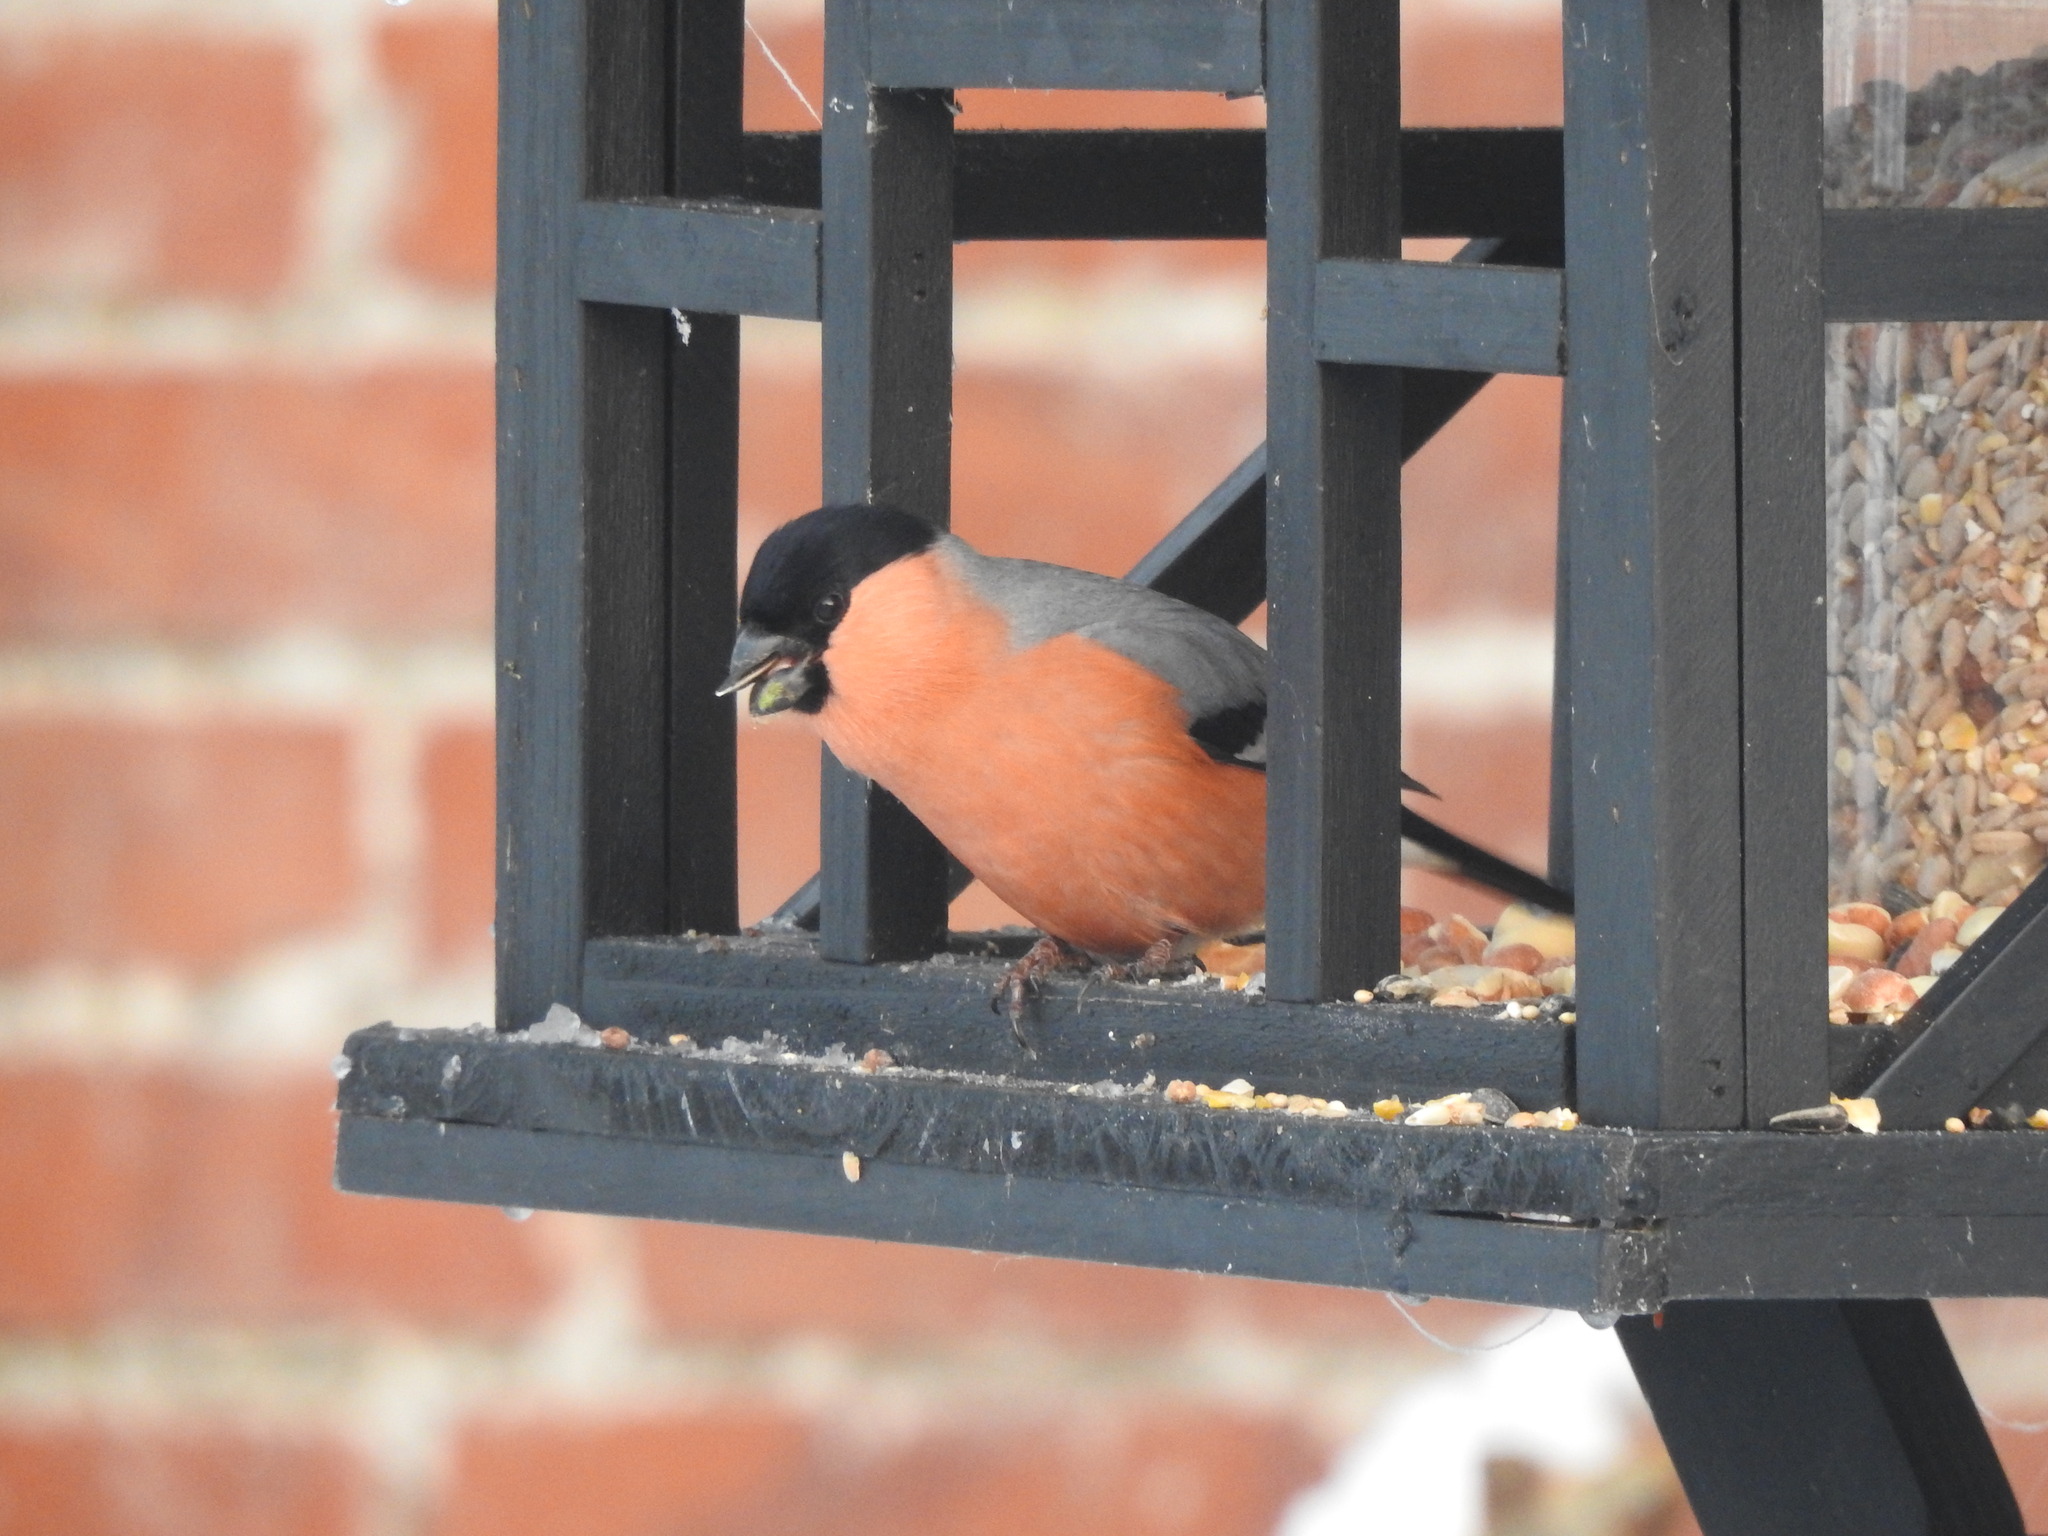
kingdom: Animalia
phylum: Chordata
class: Aves
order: Passeriformes
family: Fringillidae
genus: Pyrrhula
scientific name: Pyrrhula pyrrhula
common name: Eurasian bullfinch
